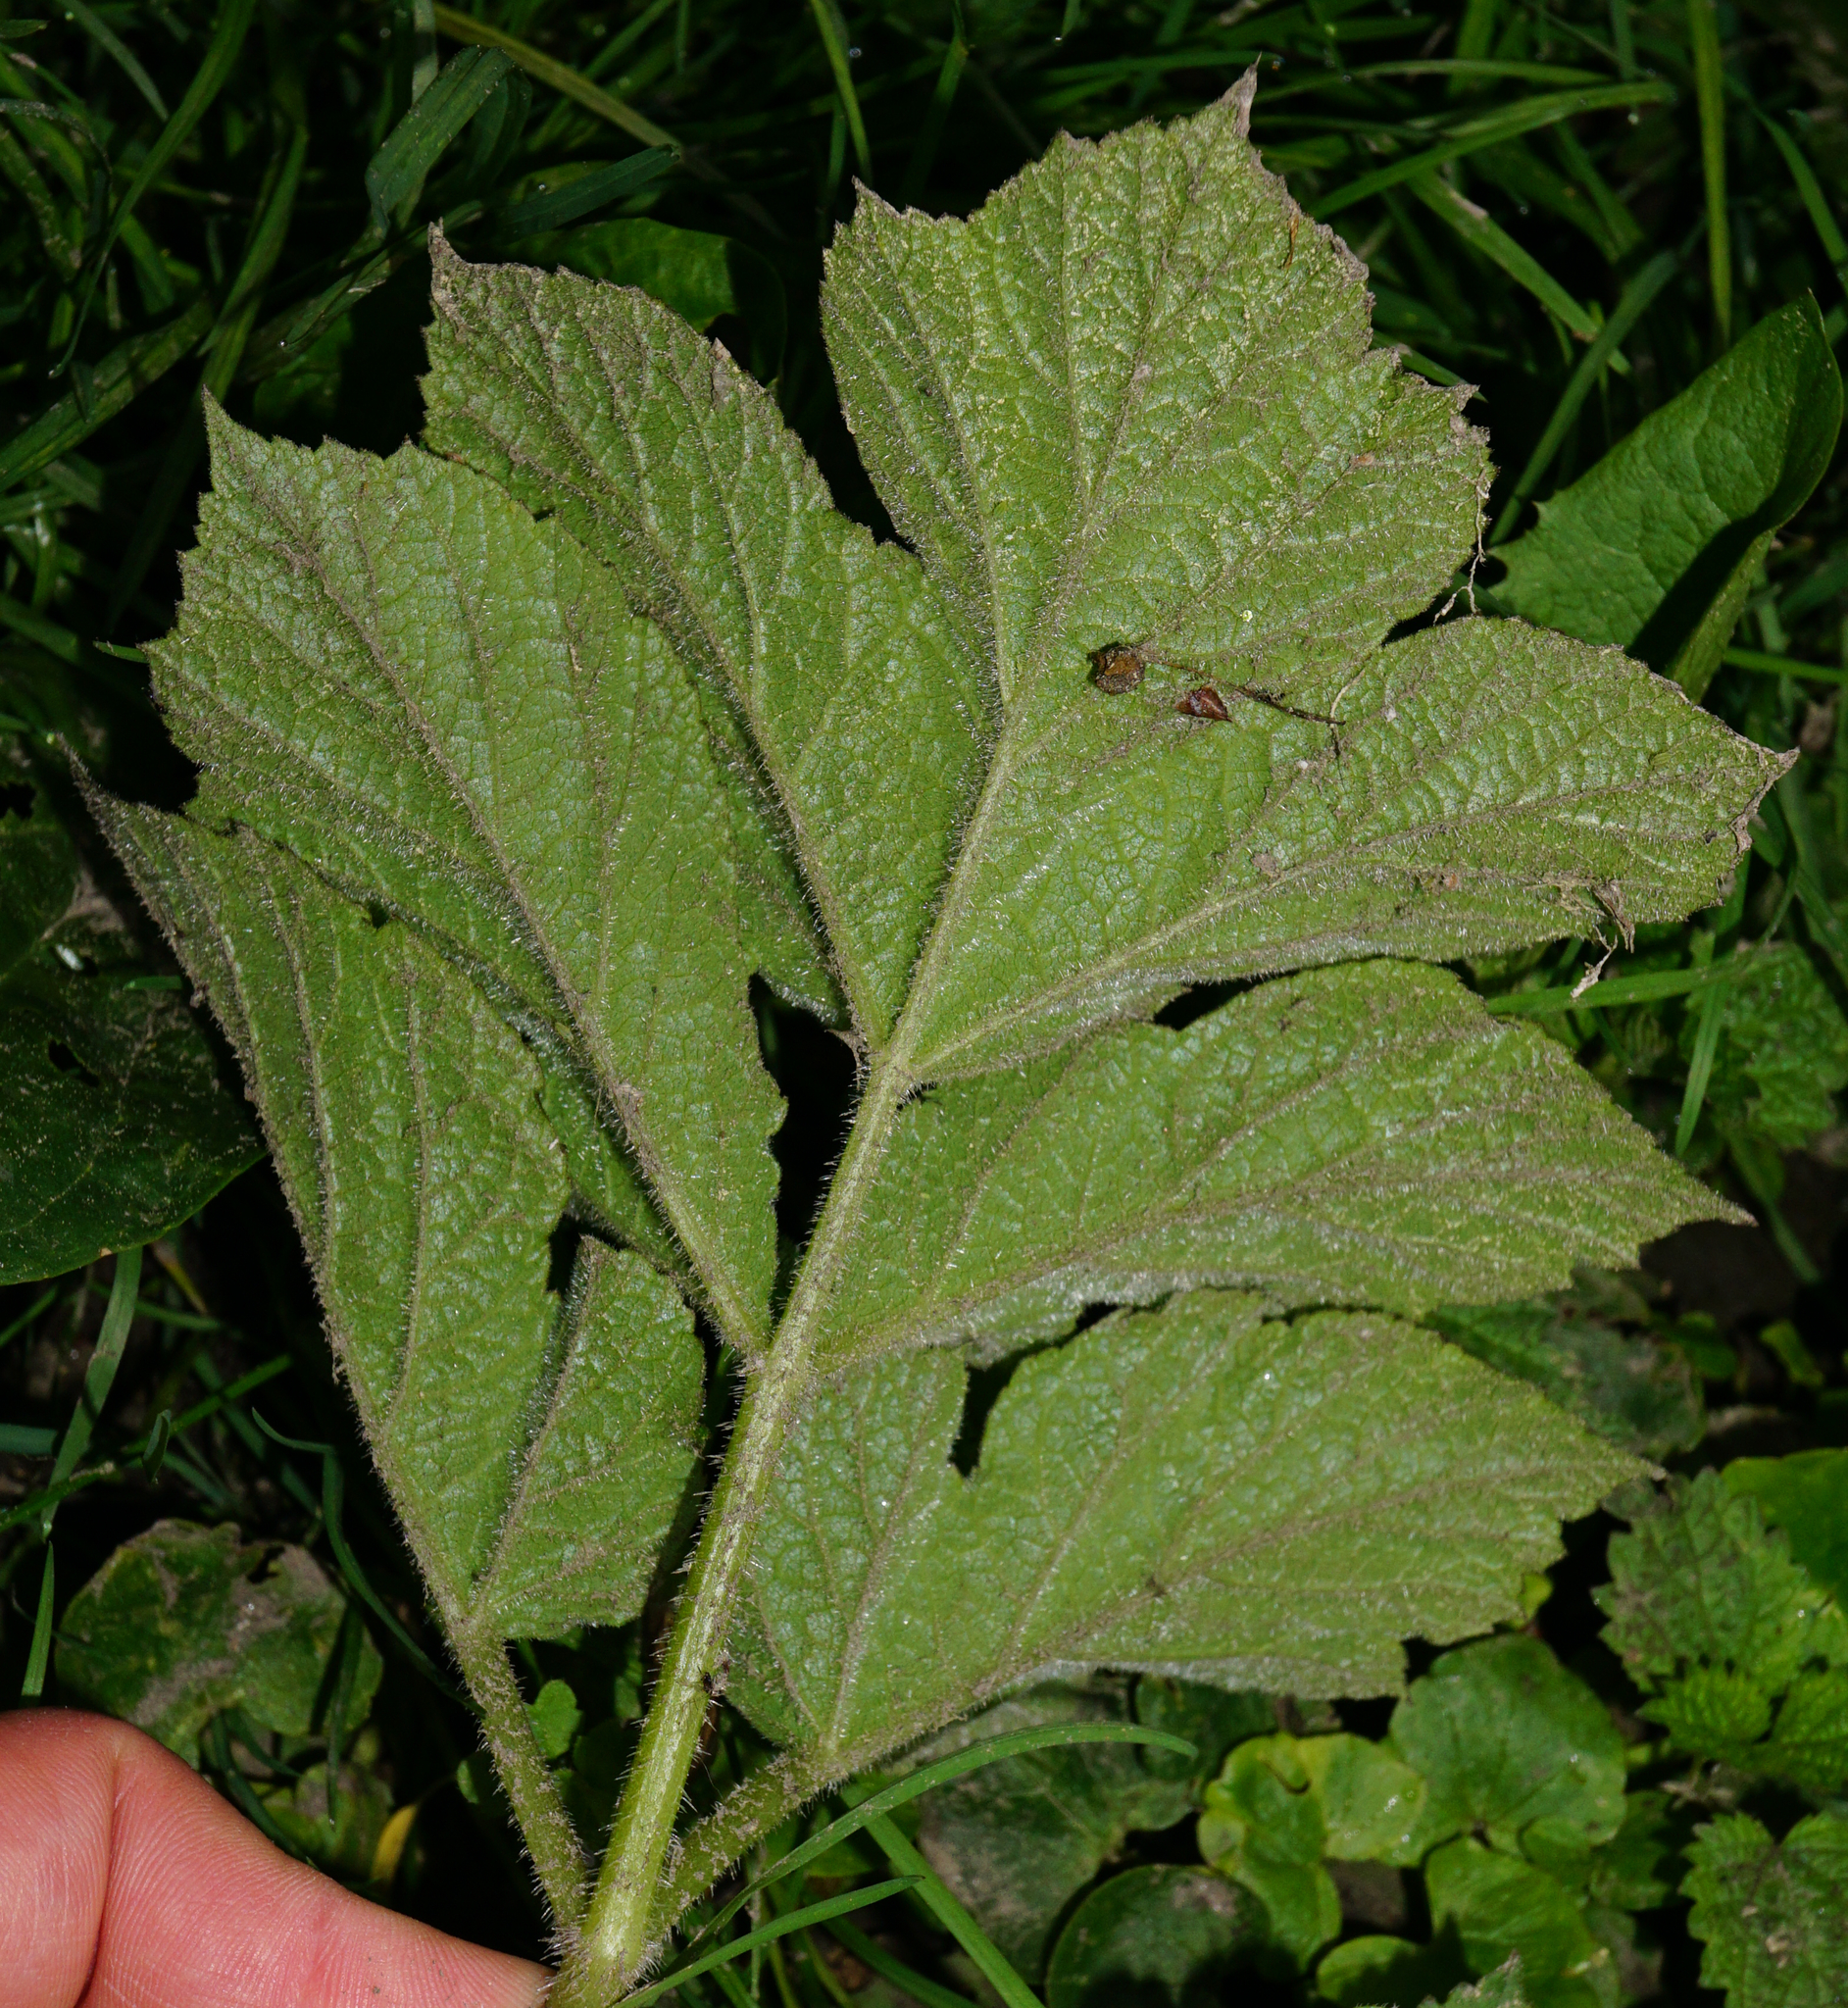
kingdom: Plantae
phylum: Tracheophyta
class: Magnoliopsida
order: Apiales
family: Apiaceae
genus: Heracleum
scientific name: Heracleum sphondylium
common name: Hogweed
